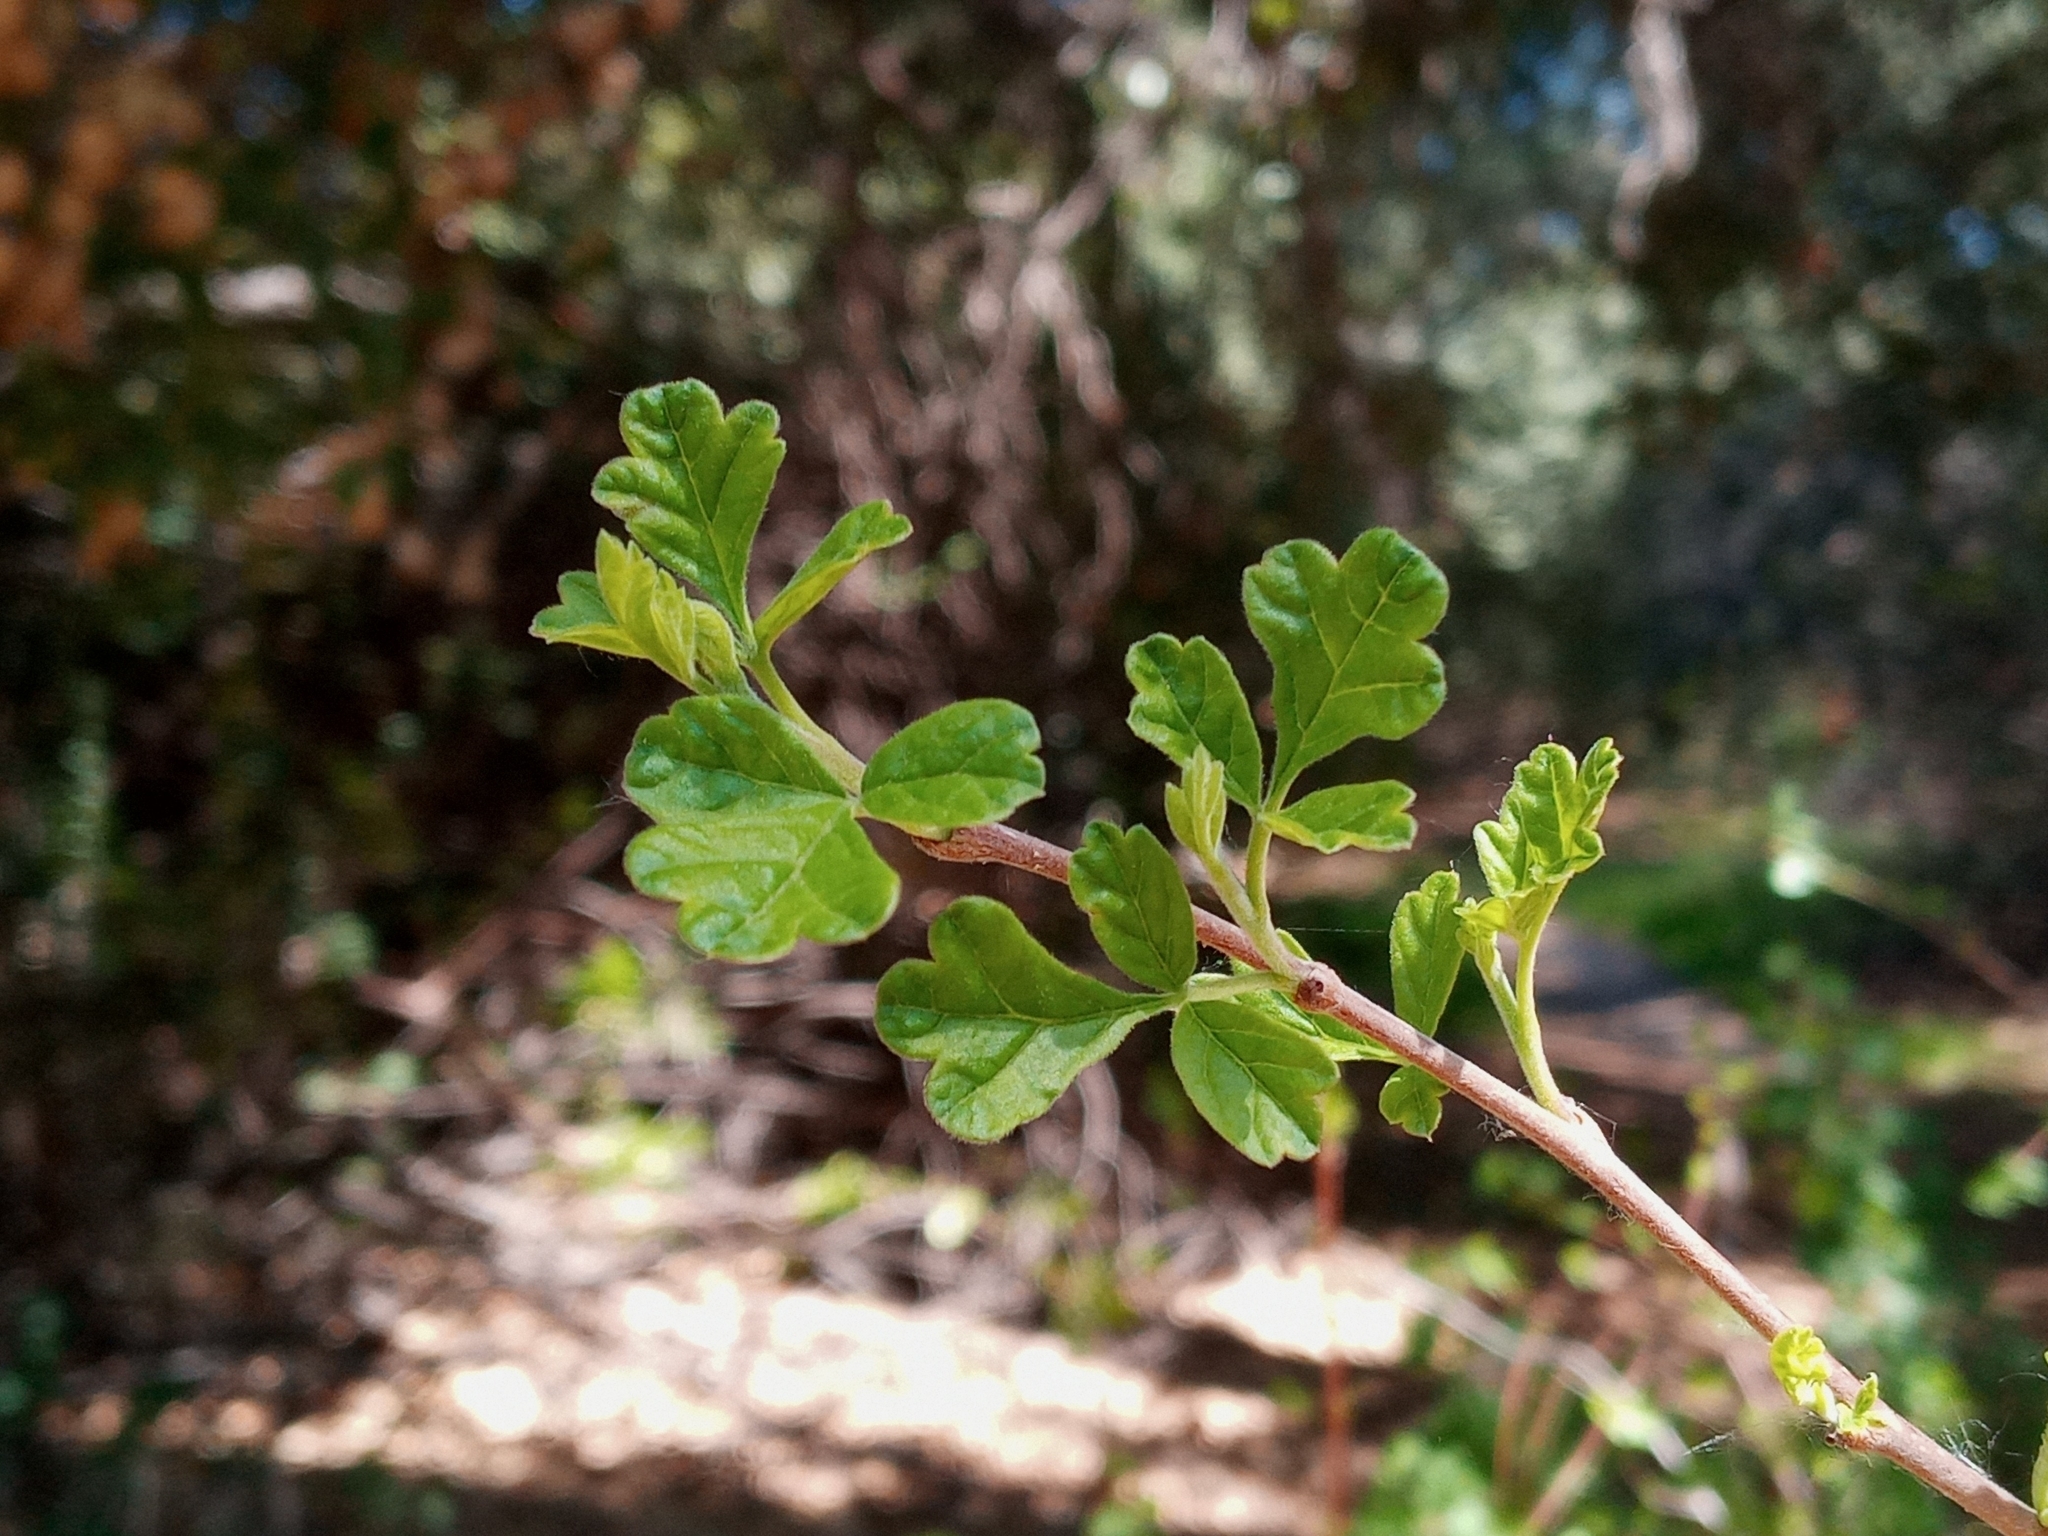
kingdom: Plantae
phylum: Tracheophyta
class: Magnoliopsida
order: Sapindales
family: Anacardiaceae
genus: Rhus
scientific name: Rhus aromatica
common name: Aromatic sumac
